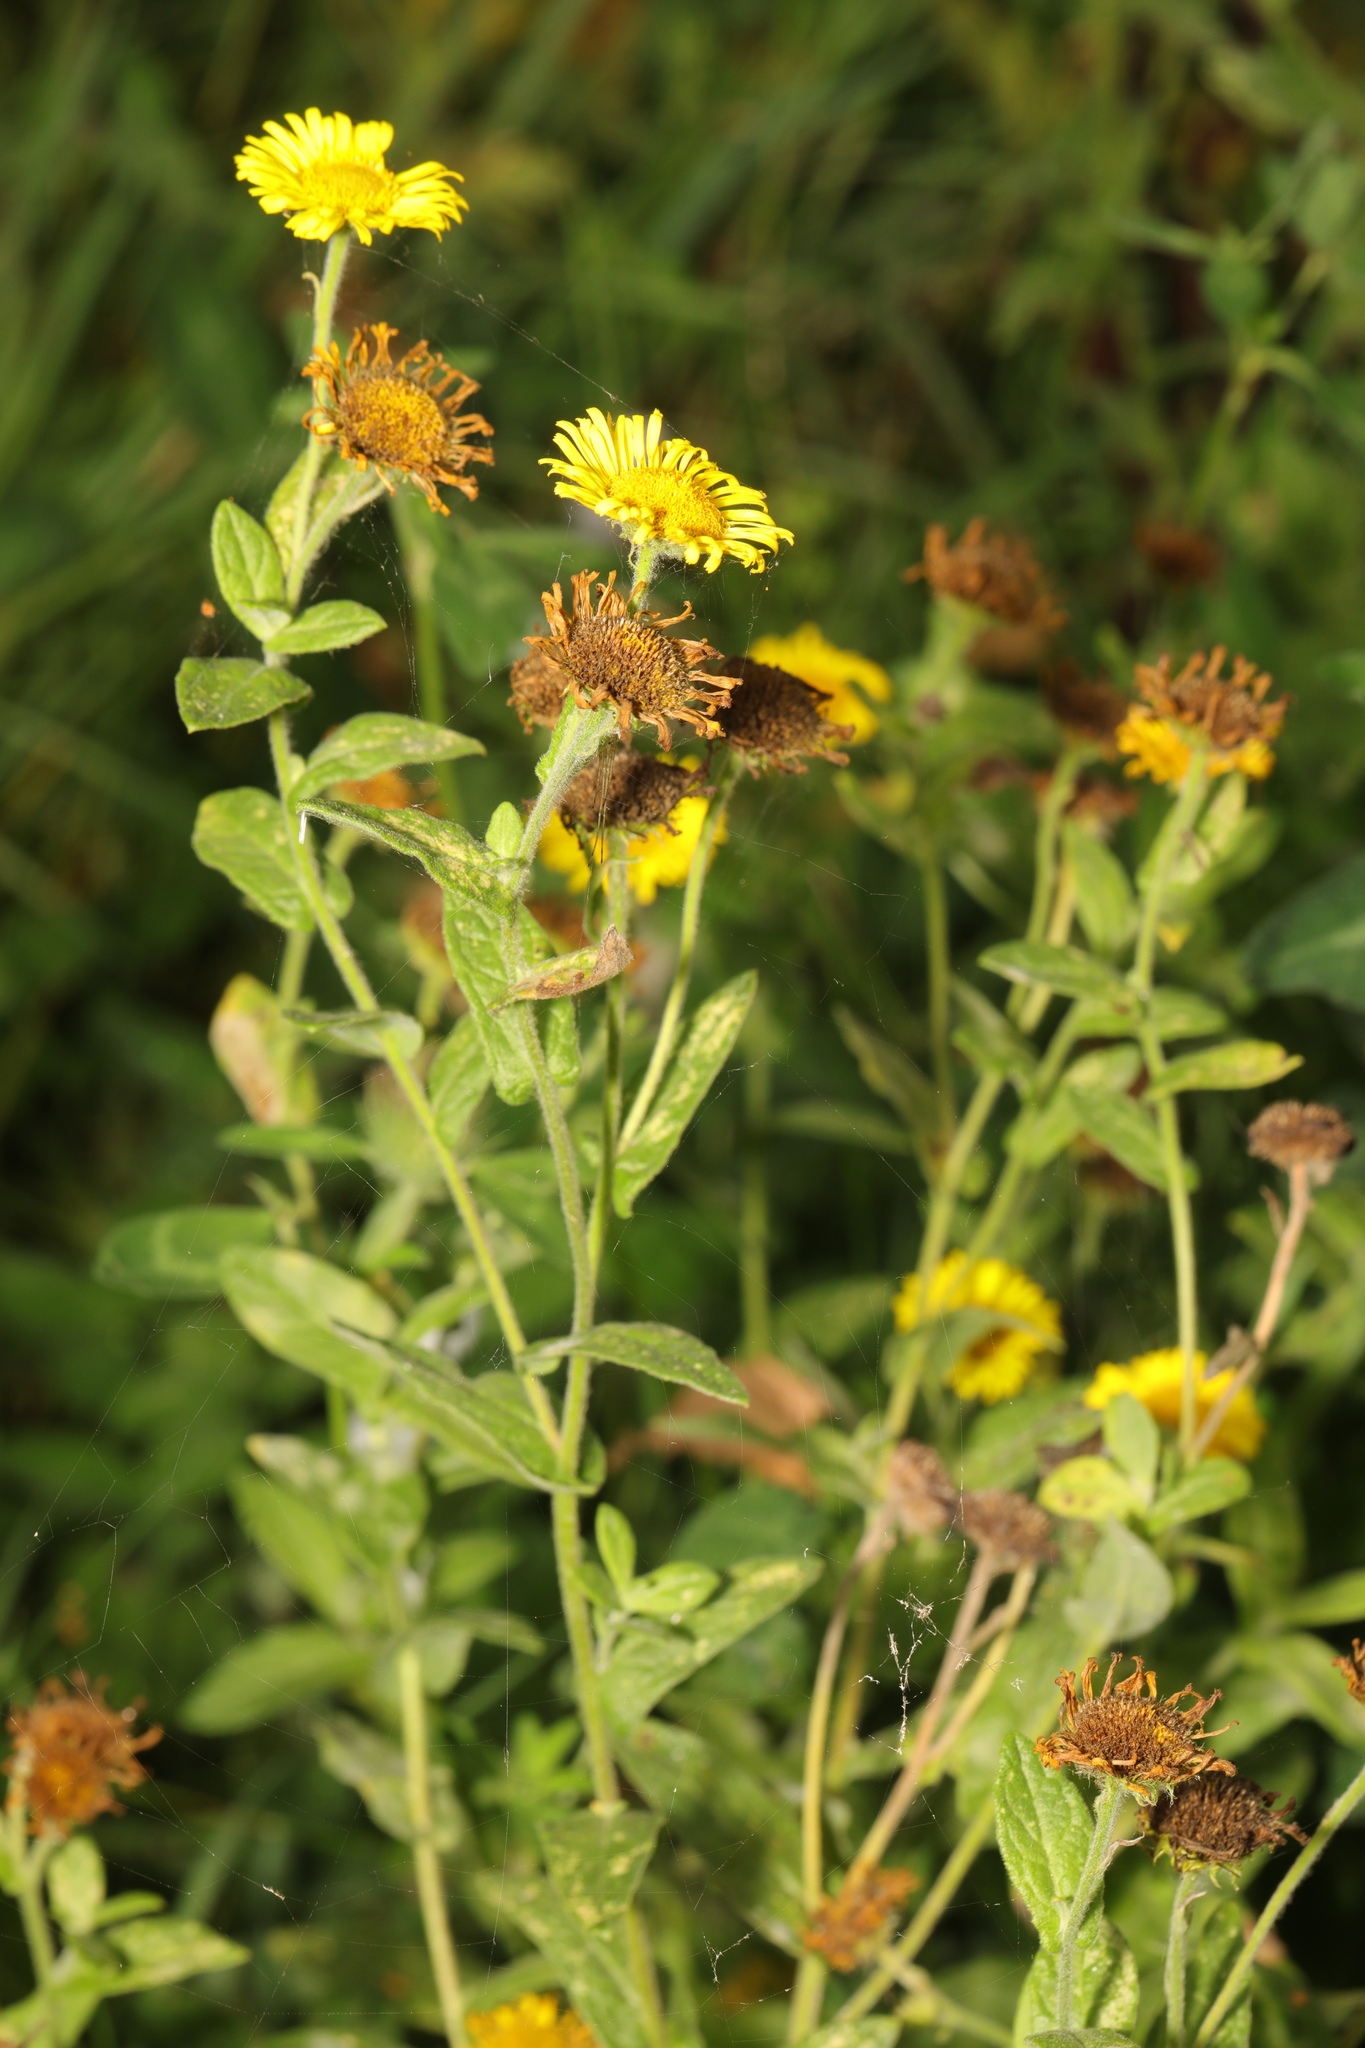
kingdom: Plantae
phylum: Tracheophyta
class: Magnoliopsida
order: Asterales
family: Asteraceae
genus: Pulicaria
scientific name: Pulicaria dysenterica
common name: Common fleabane
